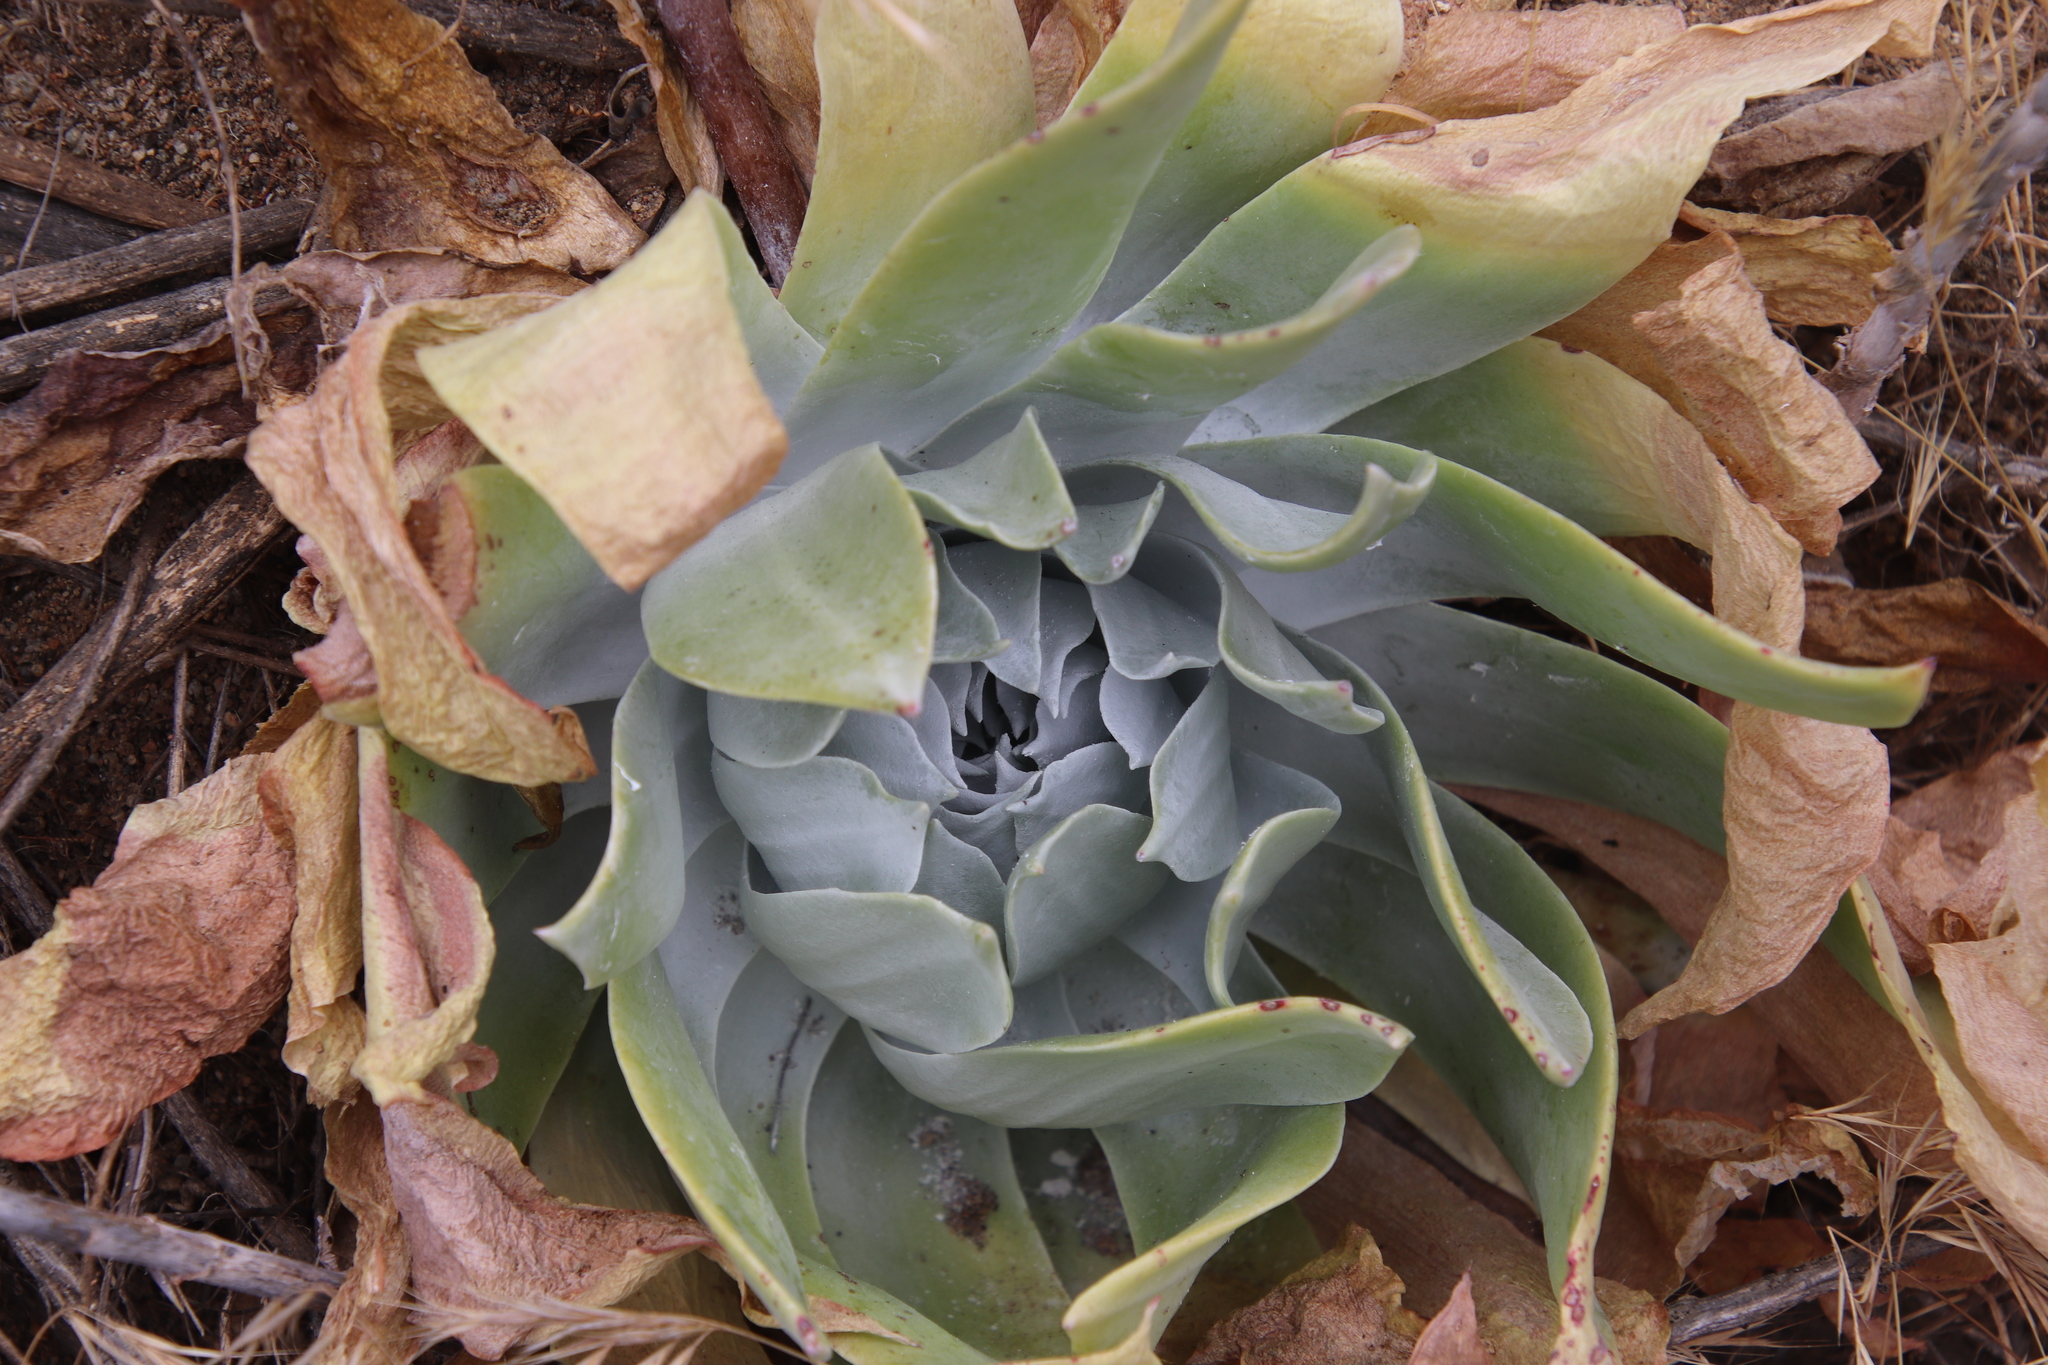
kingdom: Plantae
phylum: Tracheophyta
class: Magnoliopsida
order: Saxifragales
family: Crassulaceae
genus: Dudleya
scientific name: Dudleya pulverulenta
